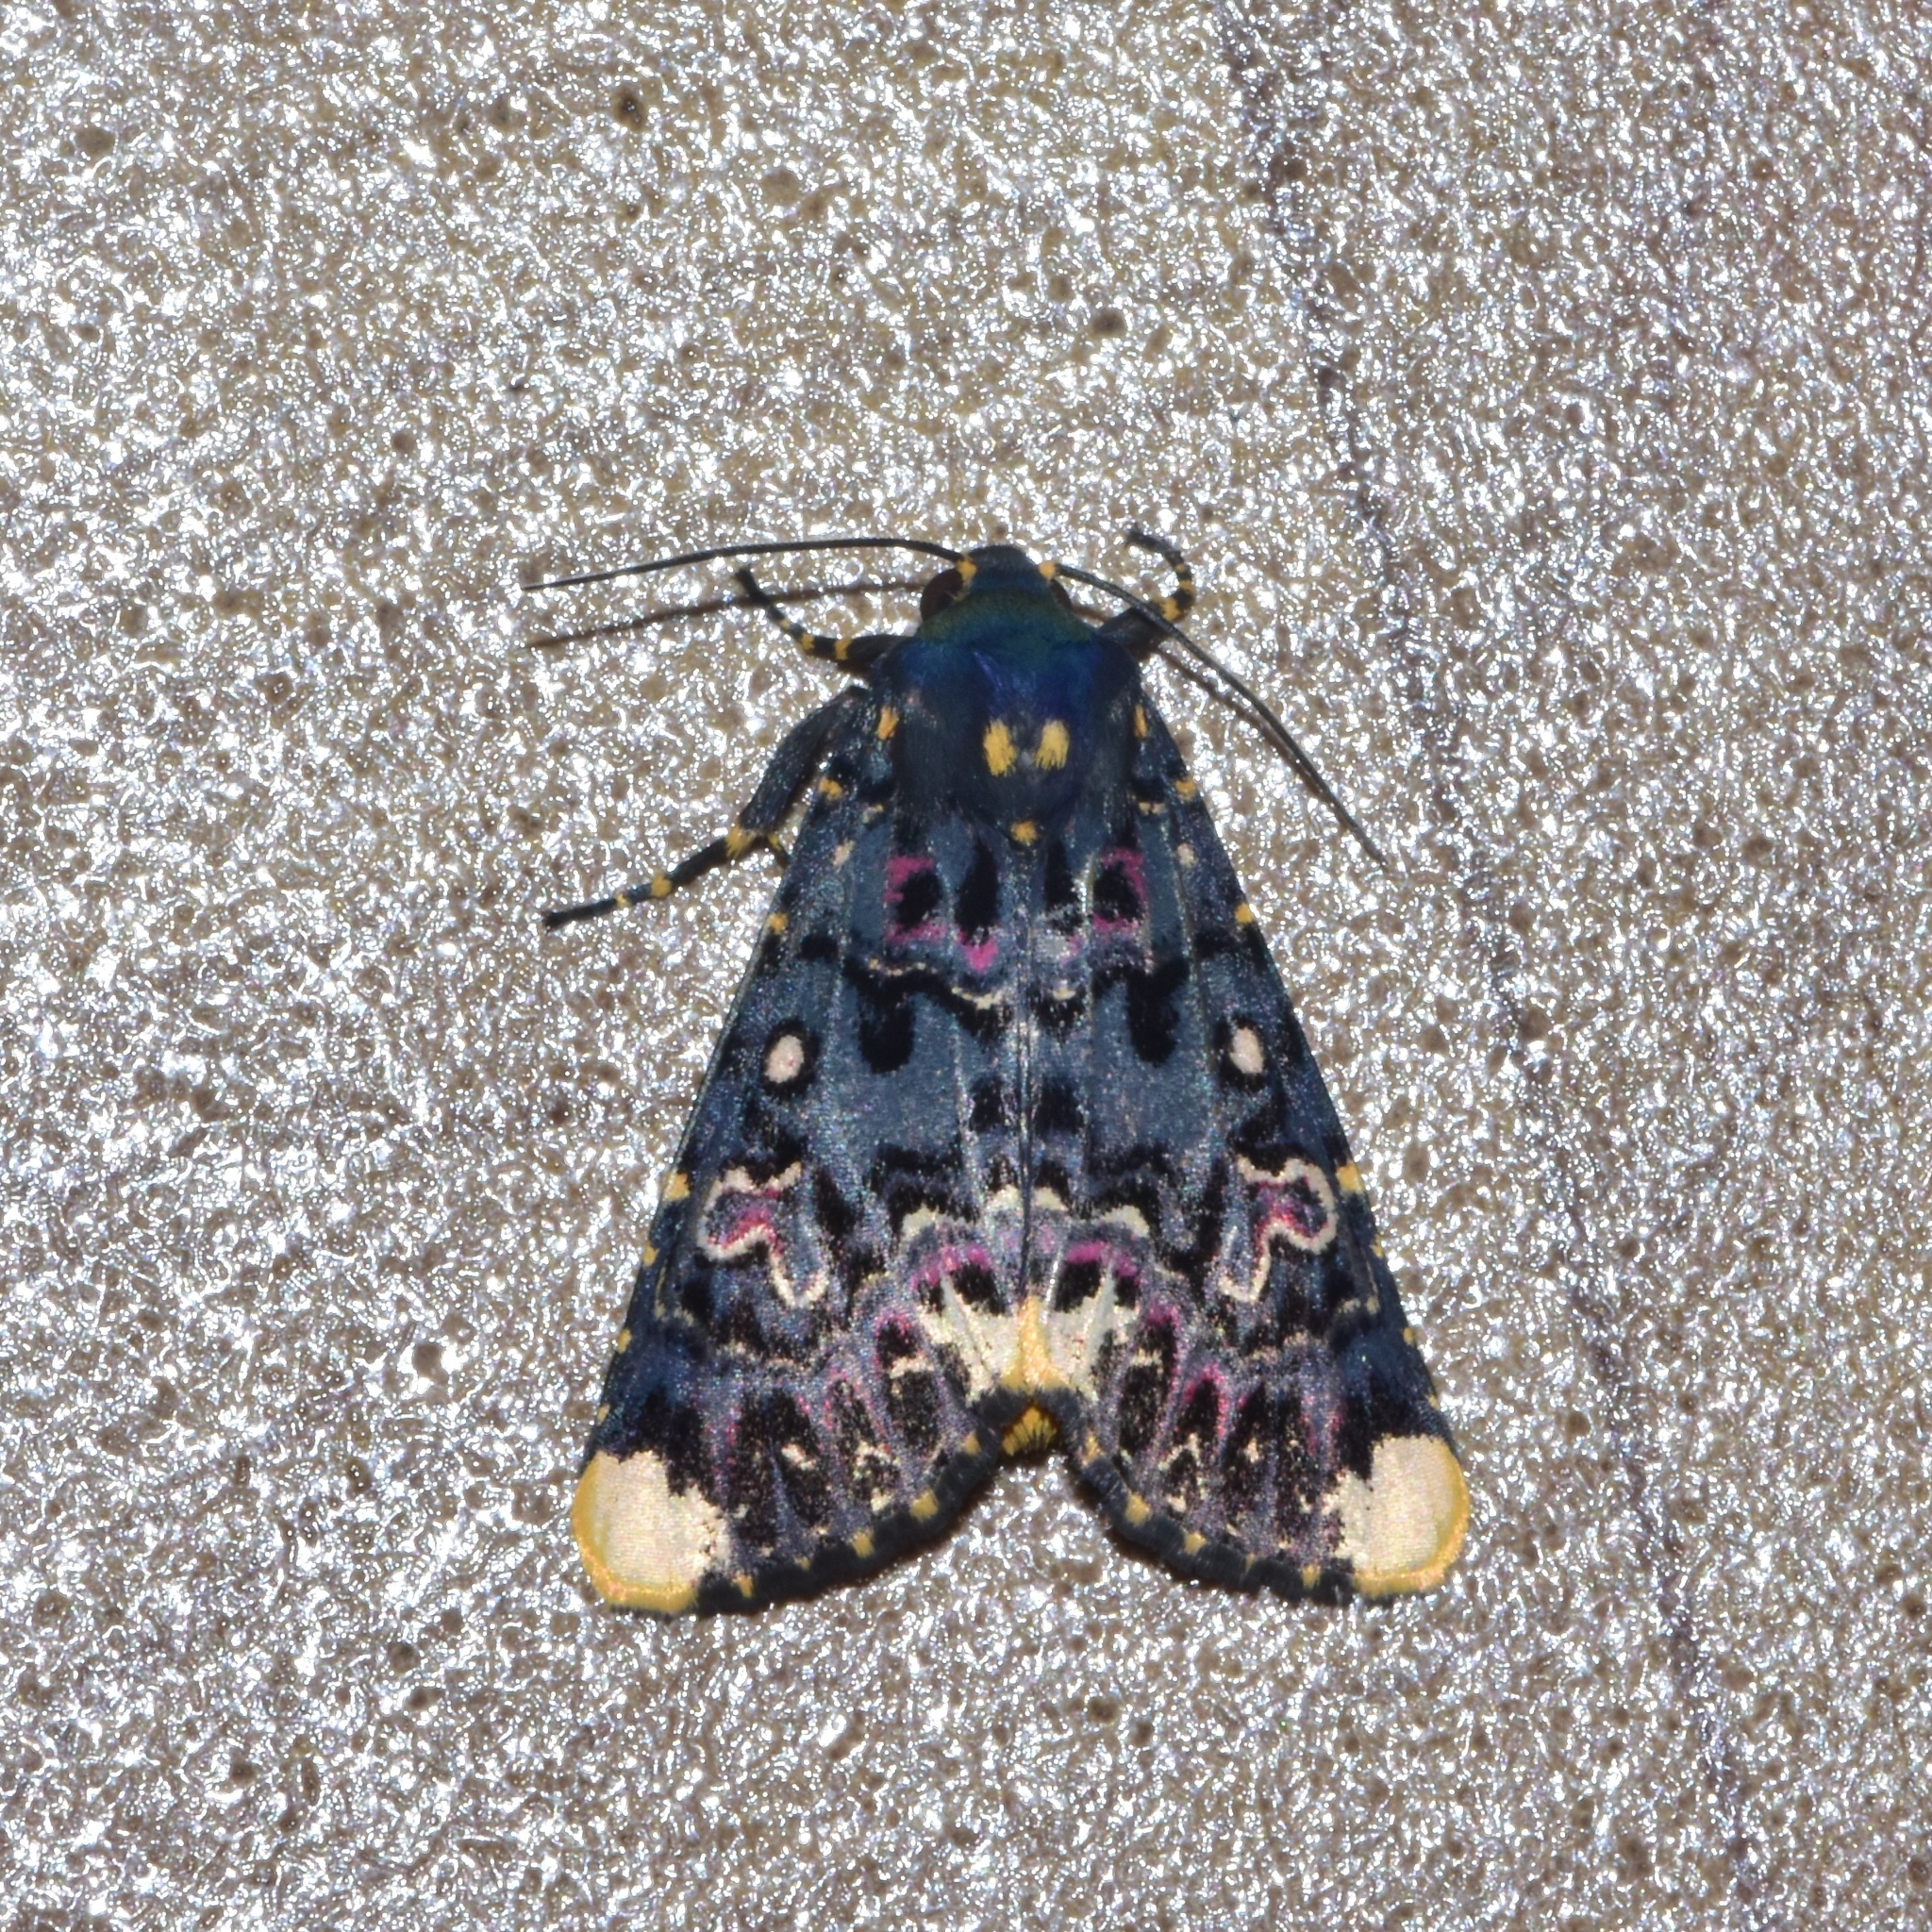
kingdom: Animalia
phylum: Arthropoda
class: Insecta
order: Lepidoptera
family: Noctuidae
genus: Polytela
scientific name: Polytela gloriosae
